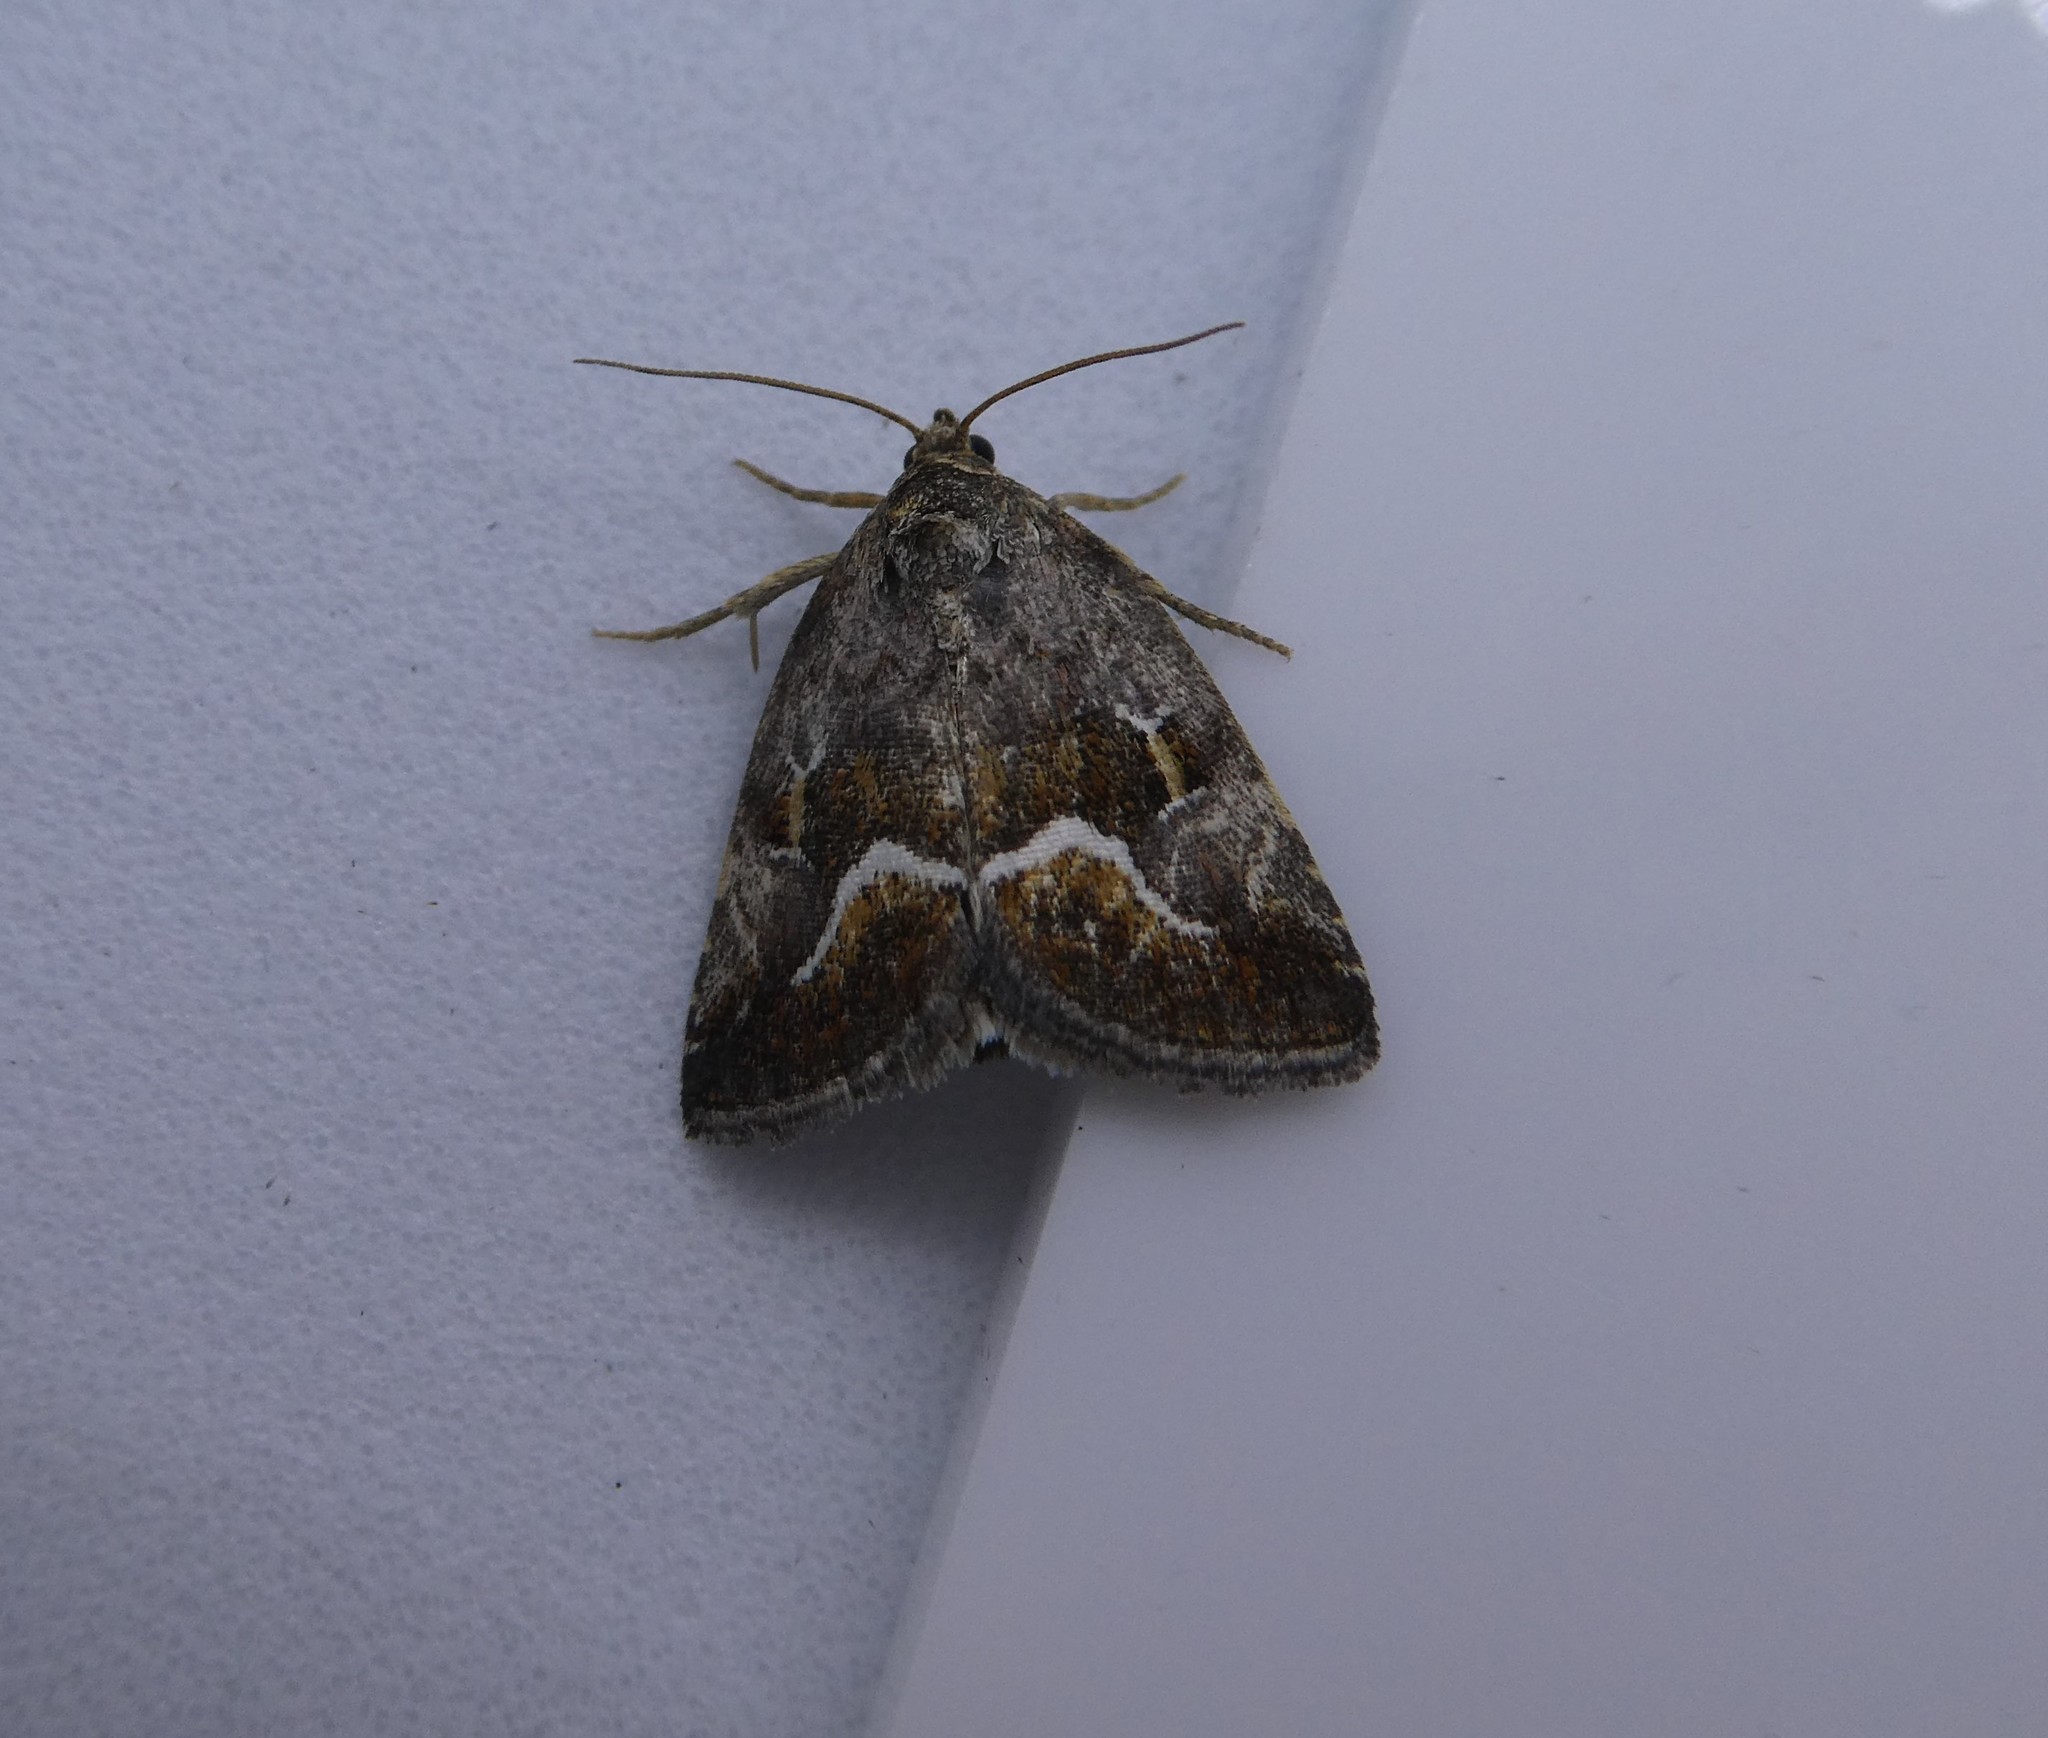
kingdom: Animalia
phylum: Arthropoda
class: Insecta
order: Lepidoptera
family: Noctuidae
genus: Deltote
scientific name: Deltote bellicula
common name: Bog glyph
